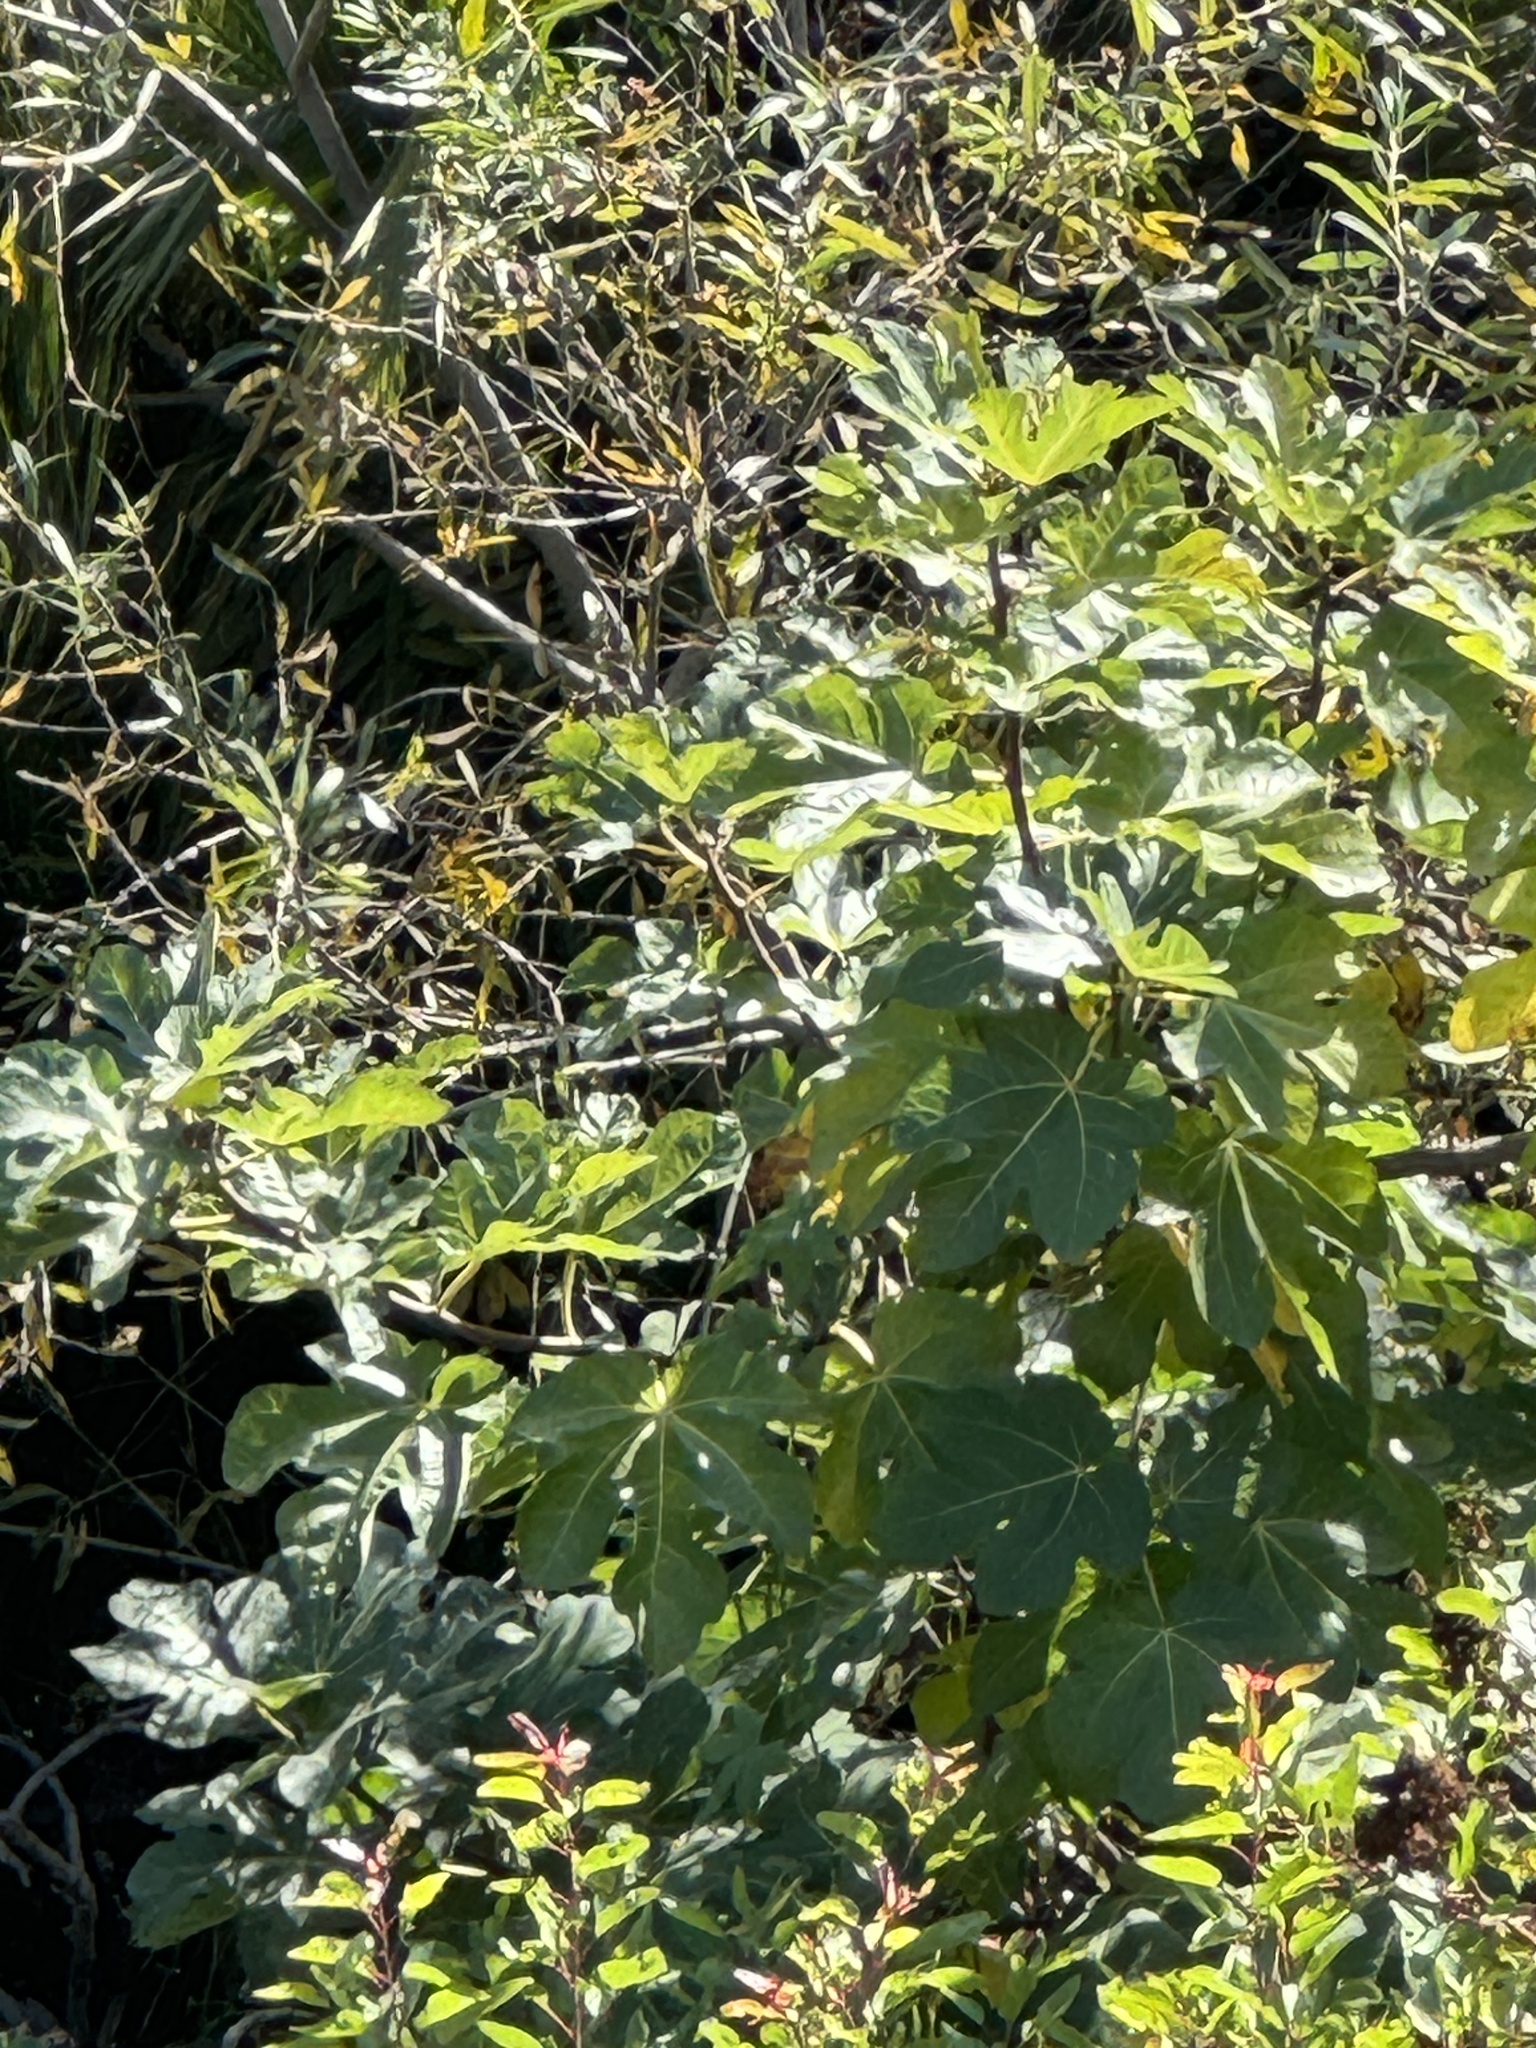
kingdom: Plantae
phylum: Tracheophyta
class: Magnoliopsida
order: Rosales
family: Moraceae
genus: Ficus
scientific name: Ficus carica
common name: Fig
